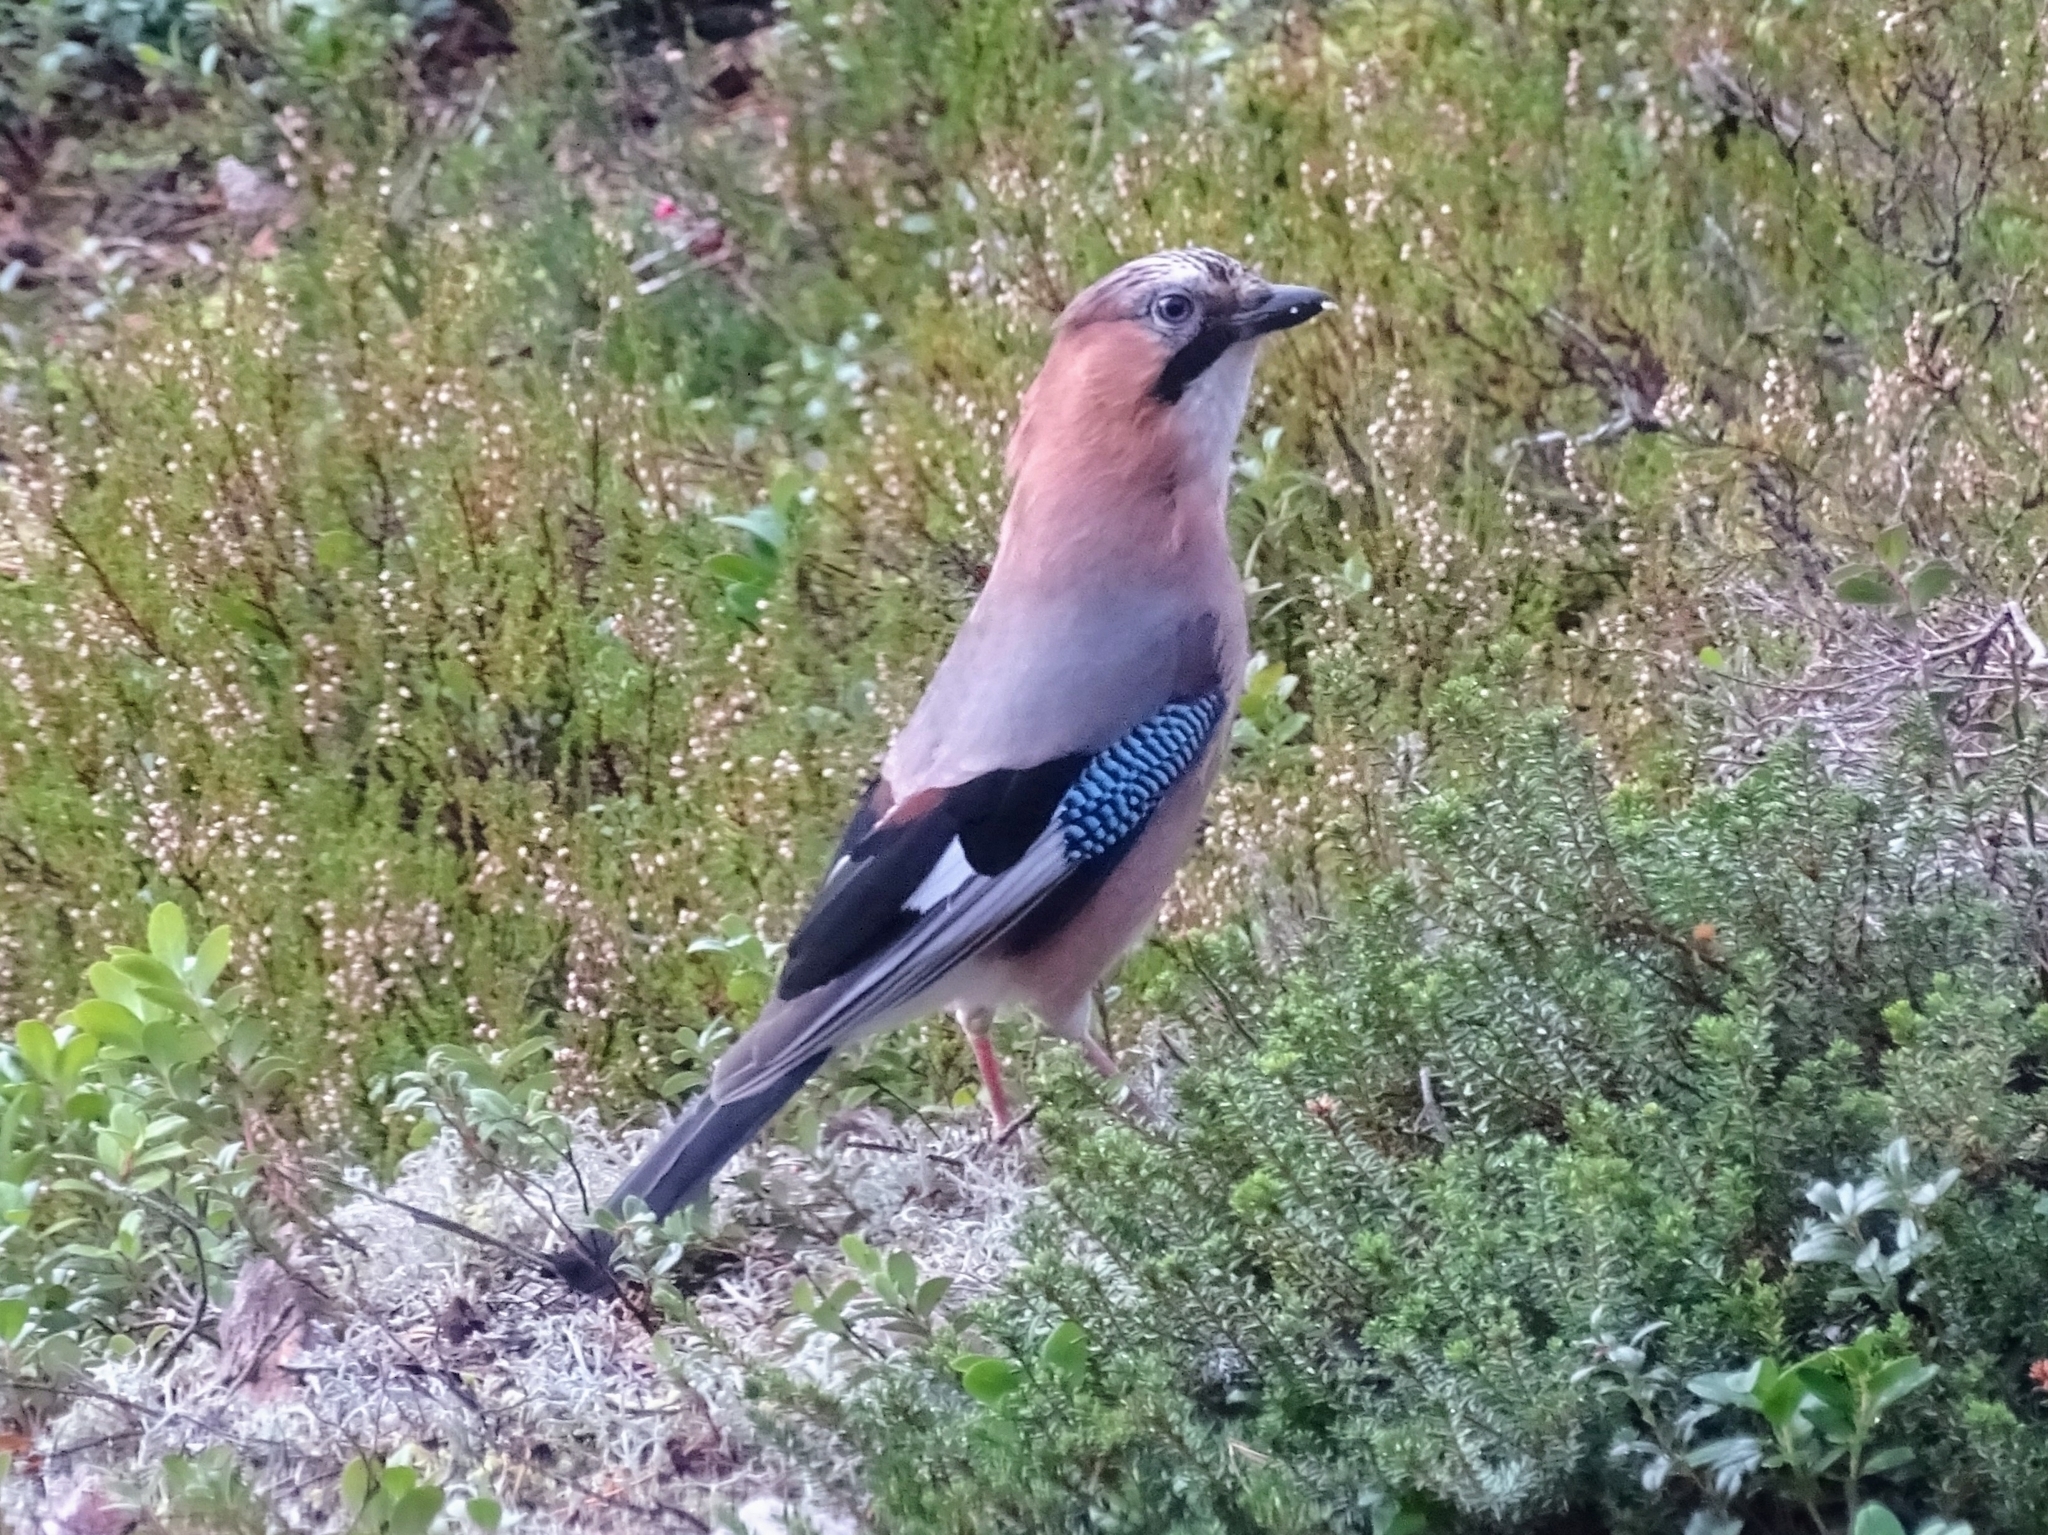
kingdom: Animalia
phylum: Chordata
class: Aves
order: Passeriformes
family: Corvidae
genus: Garrulus
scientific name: Garrulus glandarius
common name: Eurasian jay
